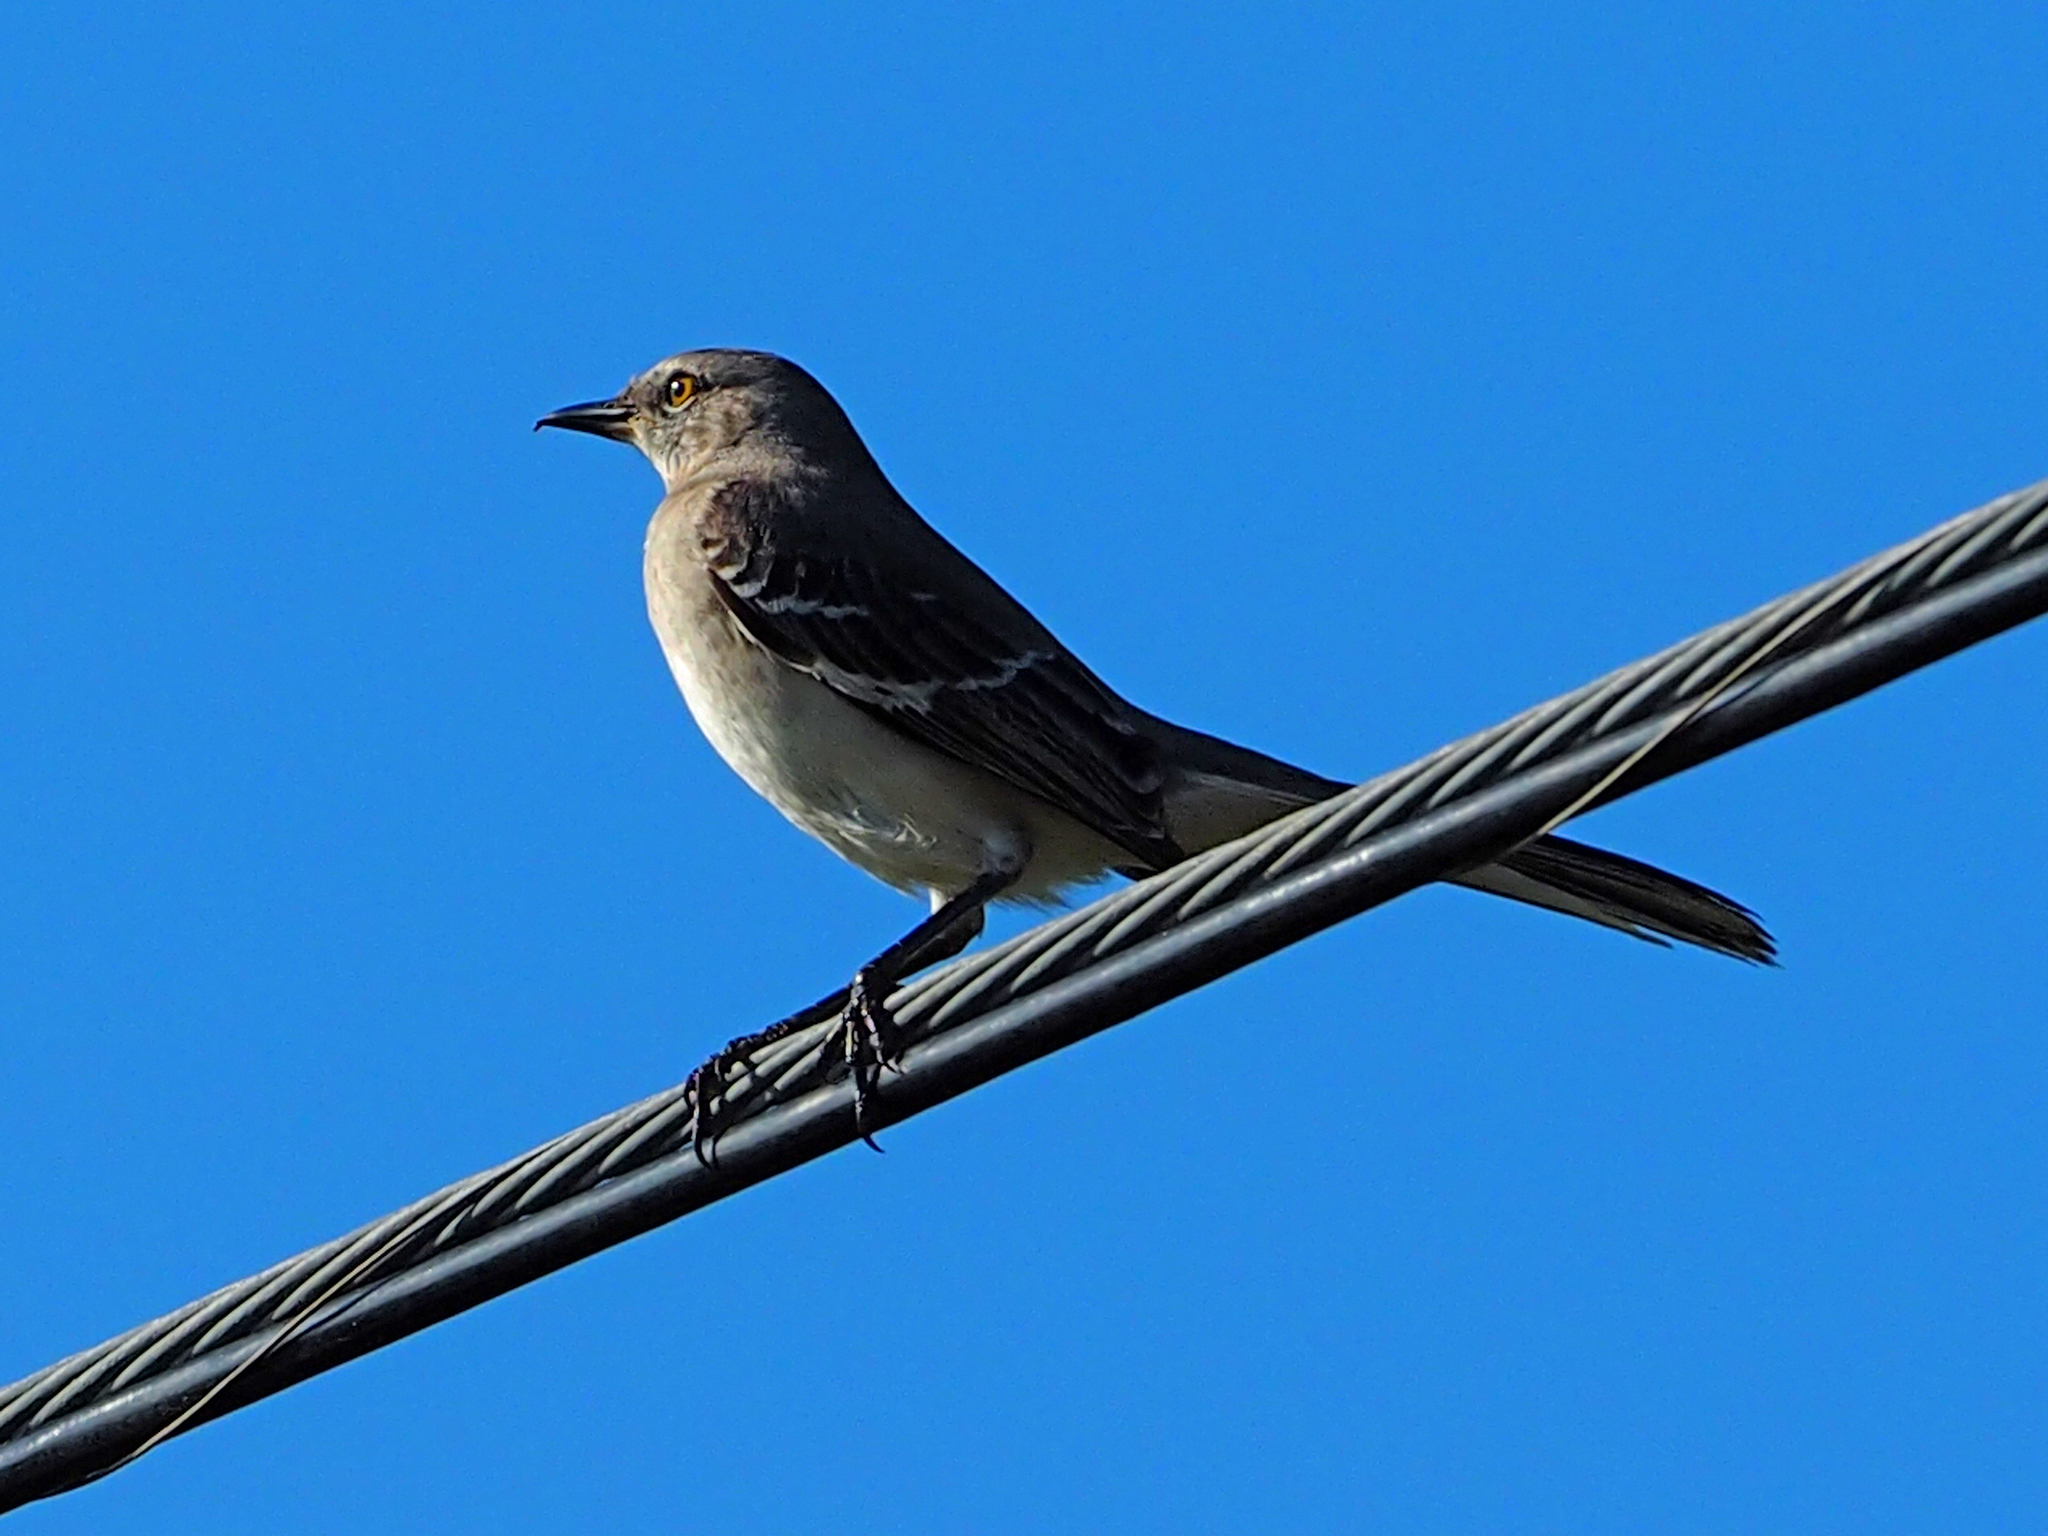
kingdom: Animalia
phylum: Chordata
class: Aves
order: Passeriformes
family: Mimidae
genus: Mimus
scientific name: Mimus polyglottos
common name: Northern mockingbird
